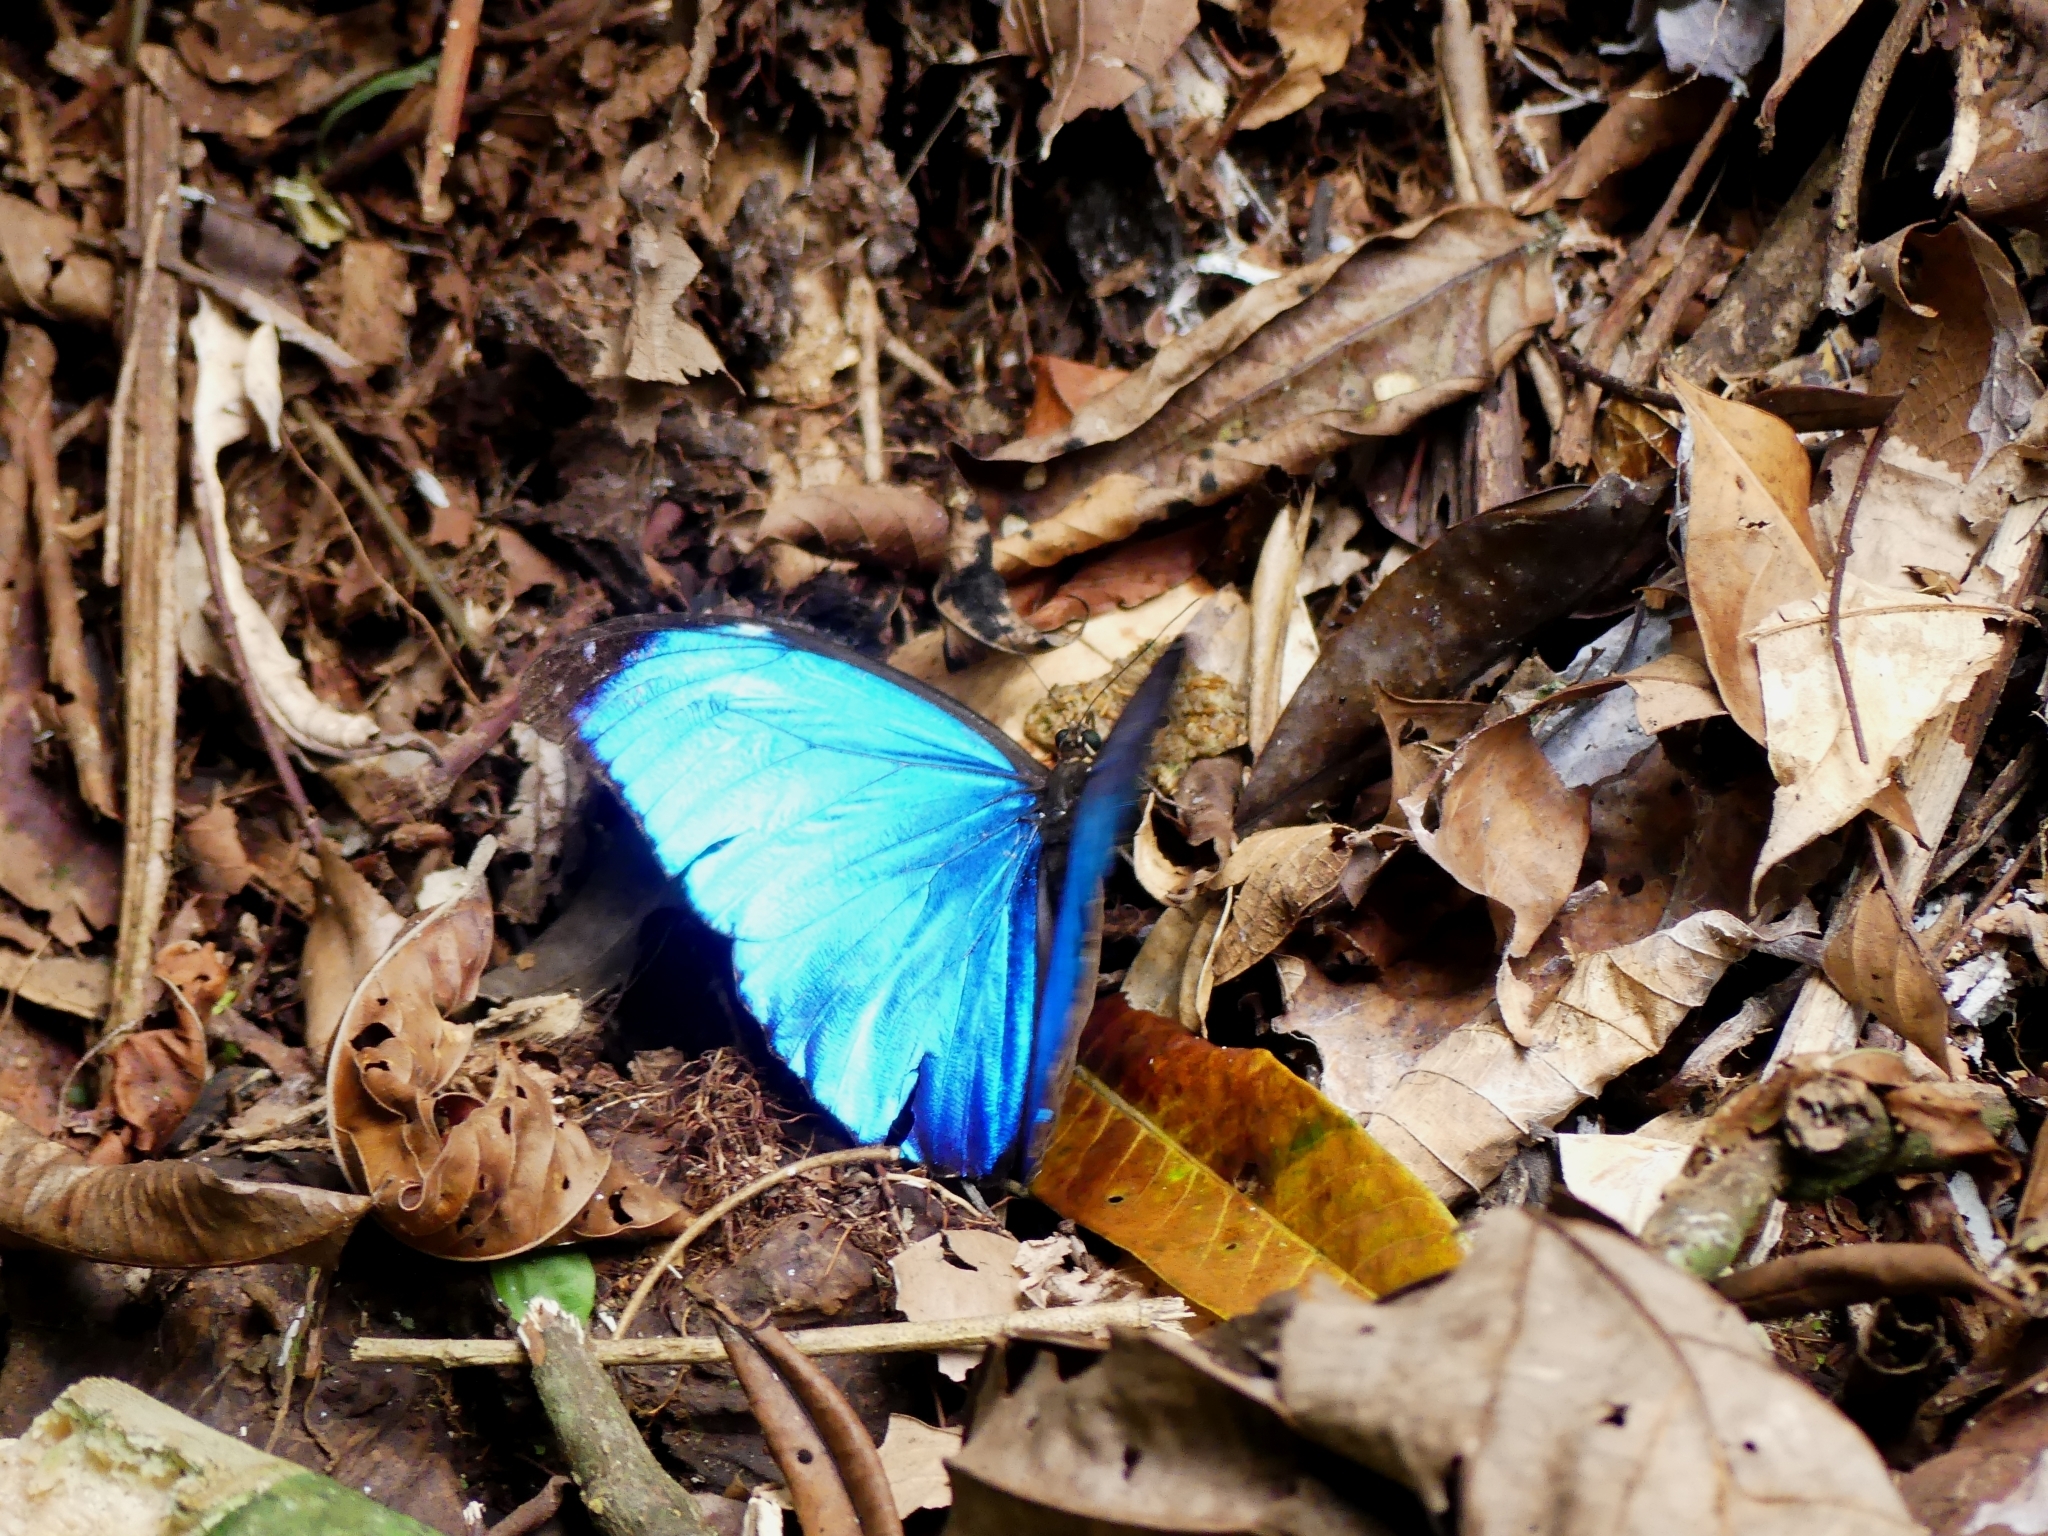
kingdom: Animalia
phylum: Arthropoda
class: Insecta
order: Lepidoptera
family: Nymphalidae
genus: Morpho
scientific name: Morpho menelaus
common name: Menelaus morpho
